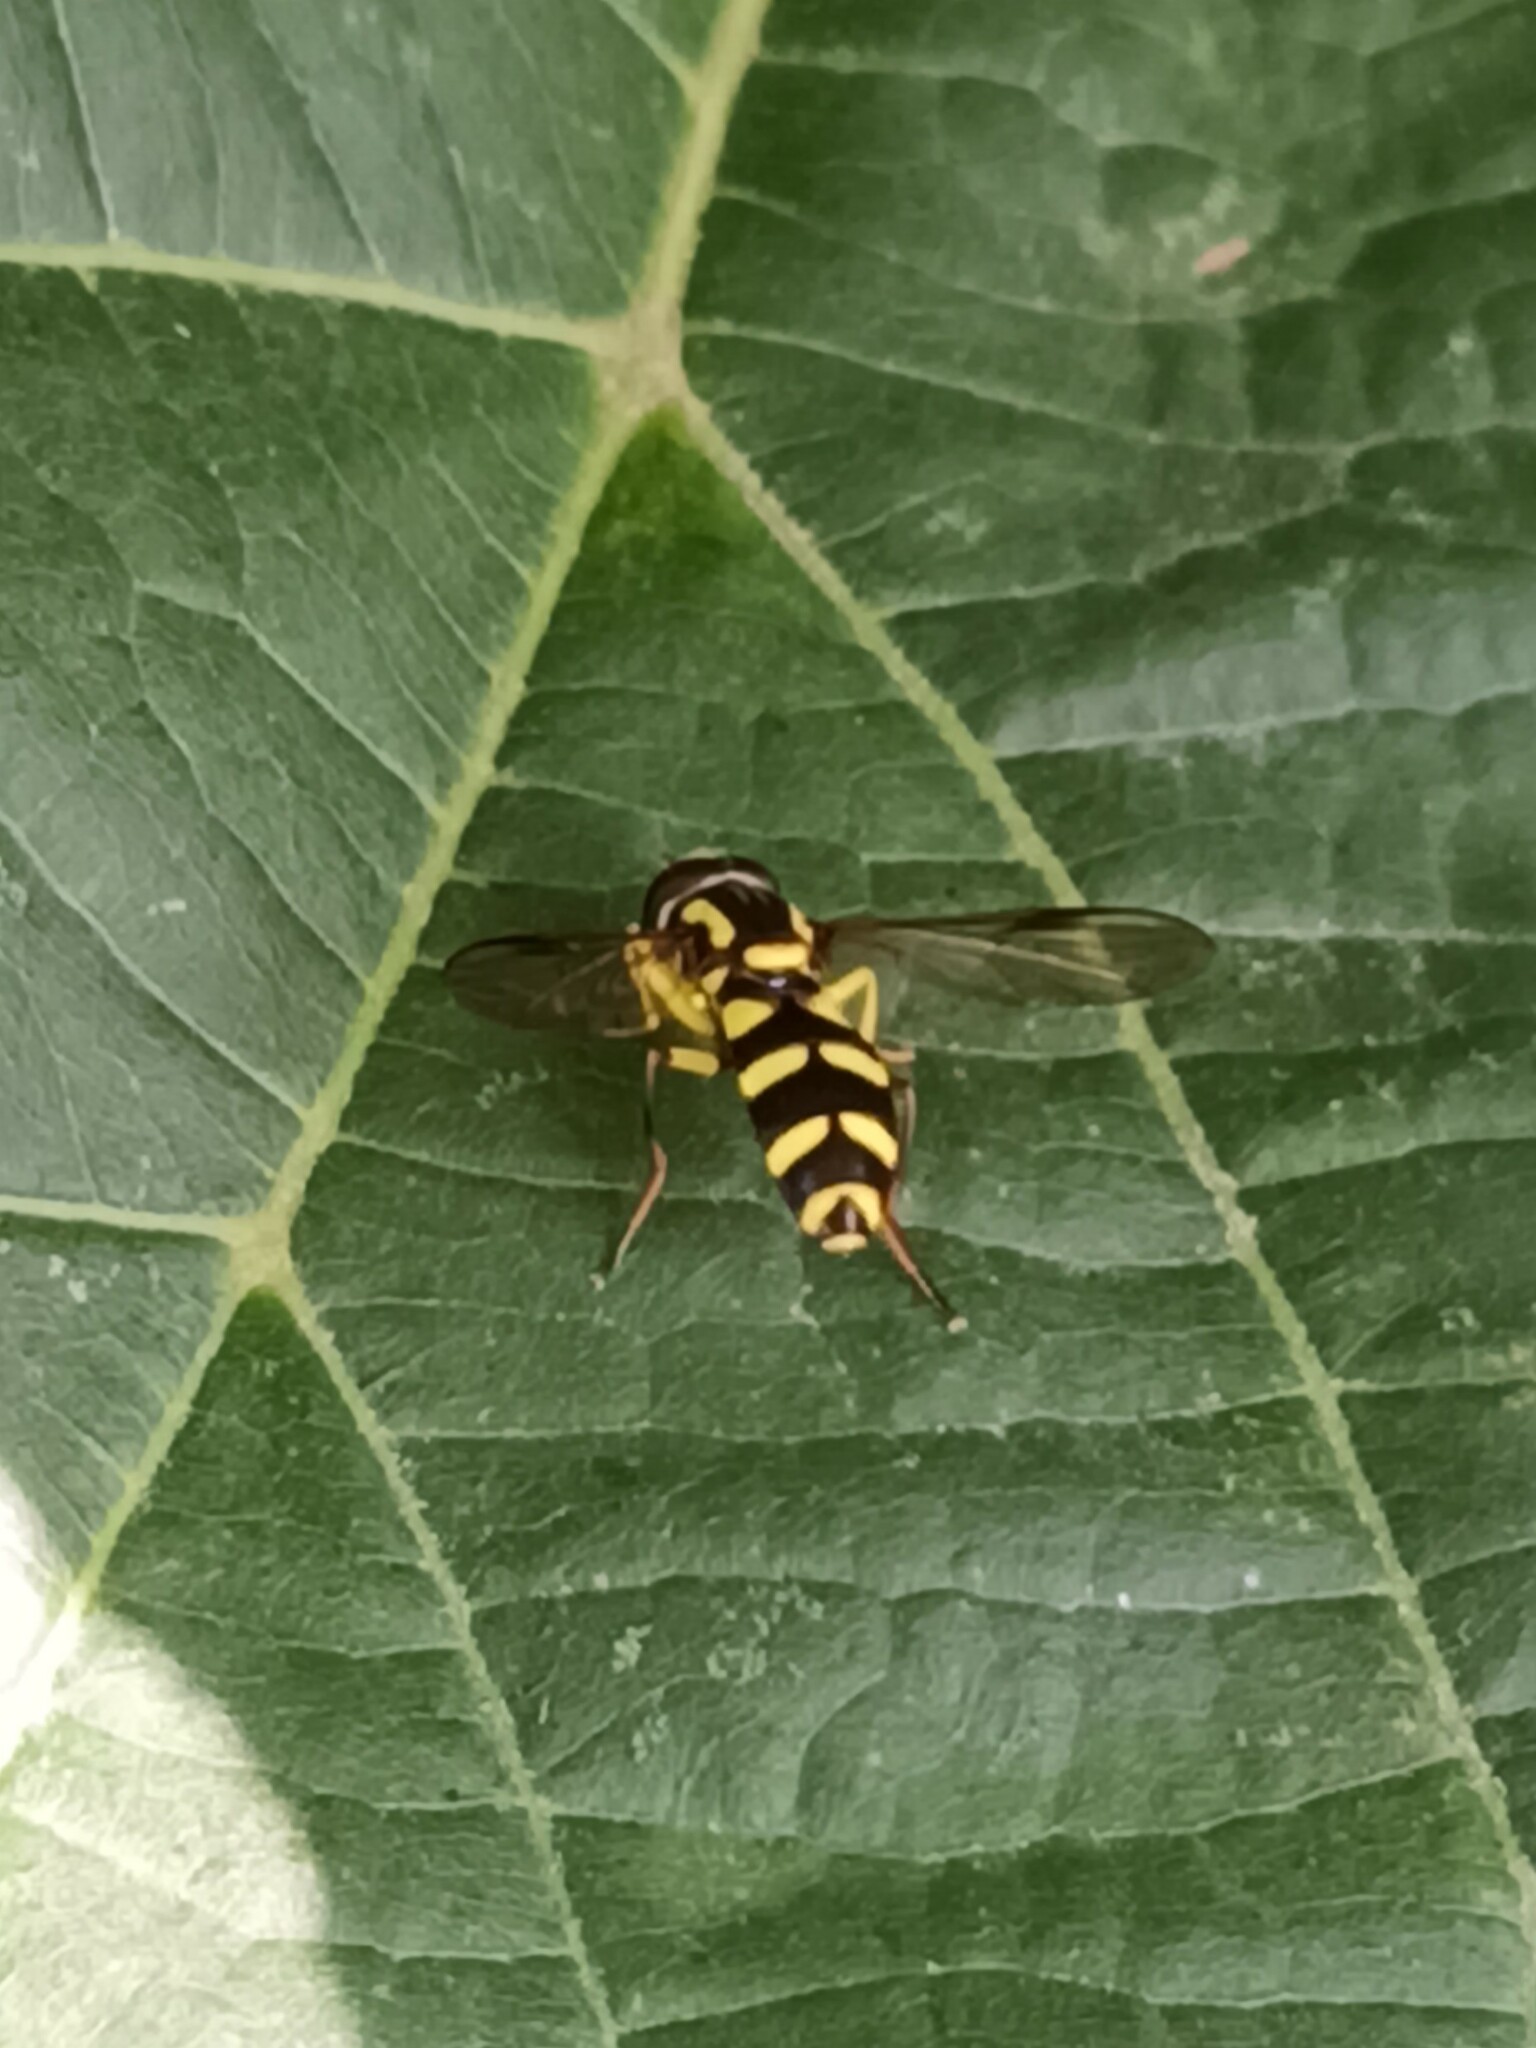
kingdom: Animalia
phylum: Arthropoda
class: Insecta
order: Diptera
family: Syrphidae
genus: Philhelius
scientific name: Philhelius dives
